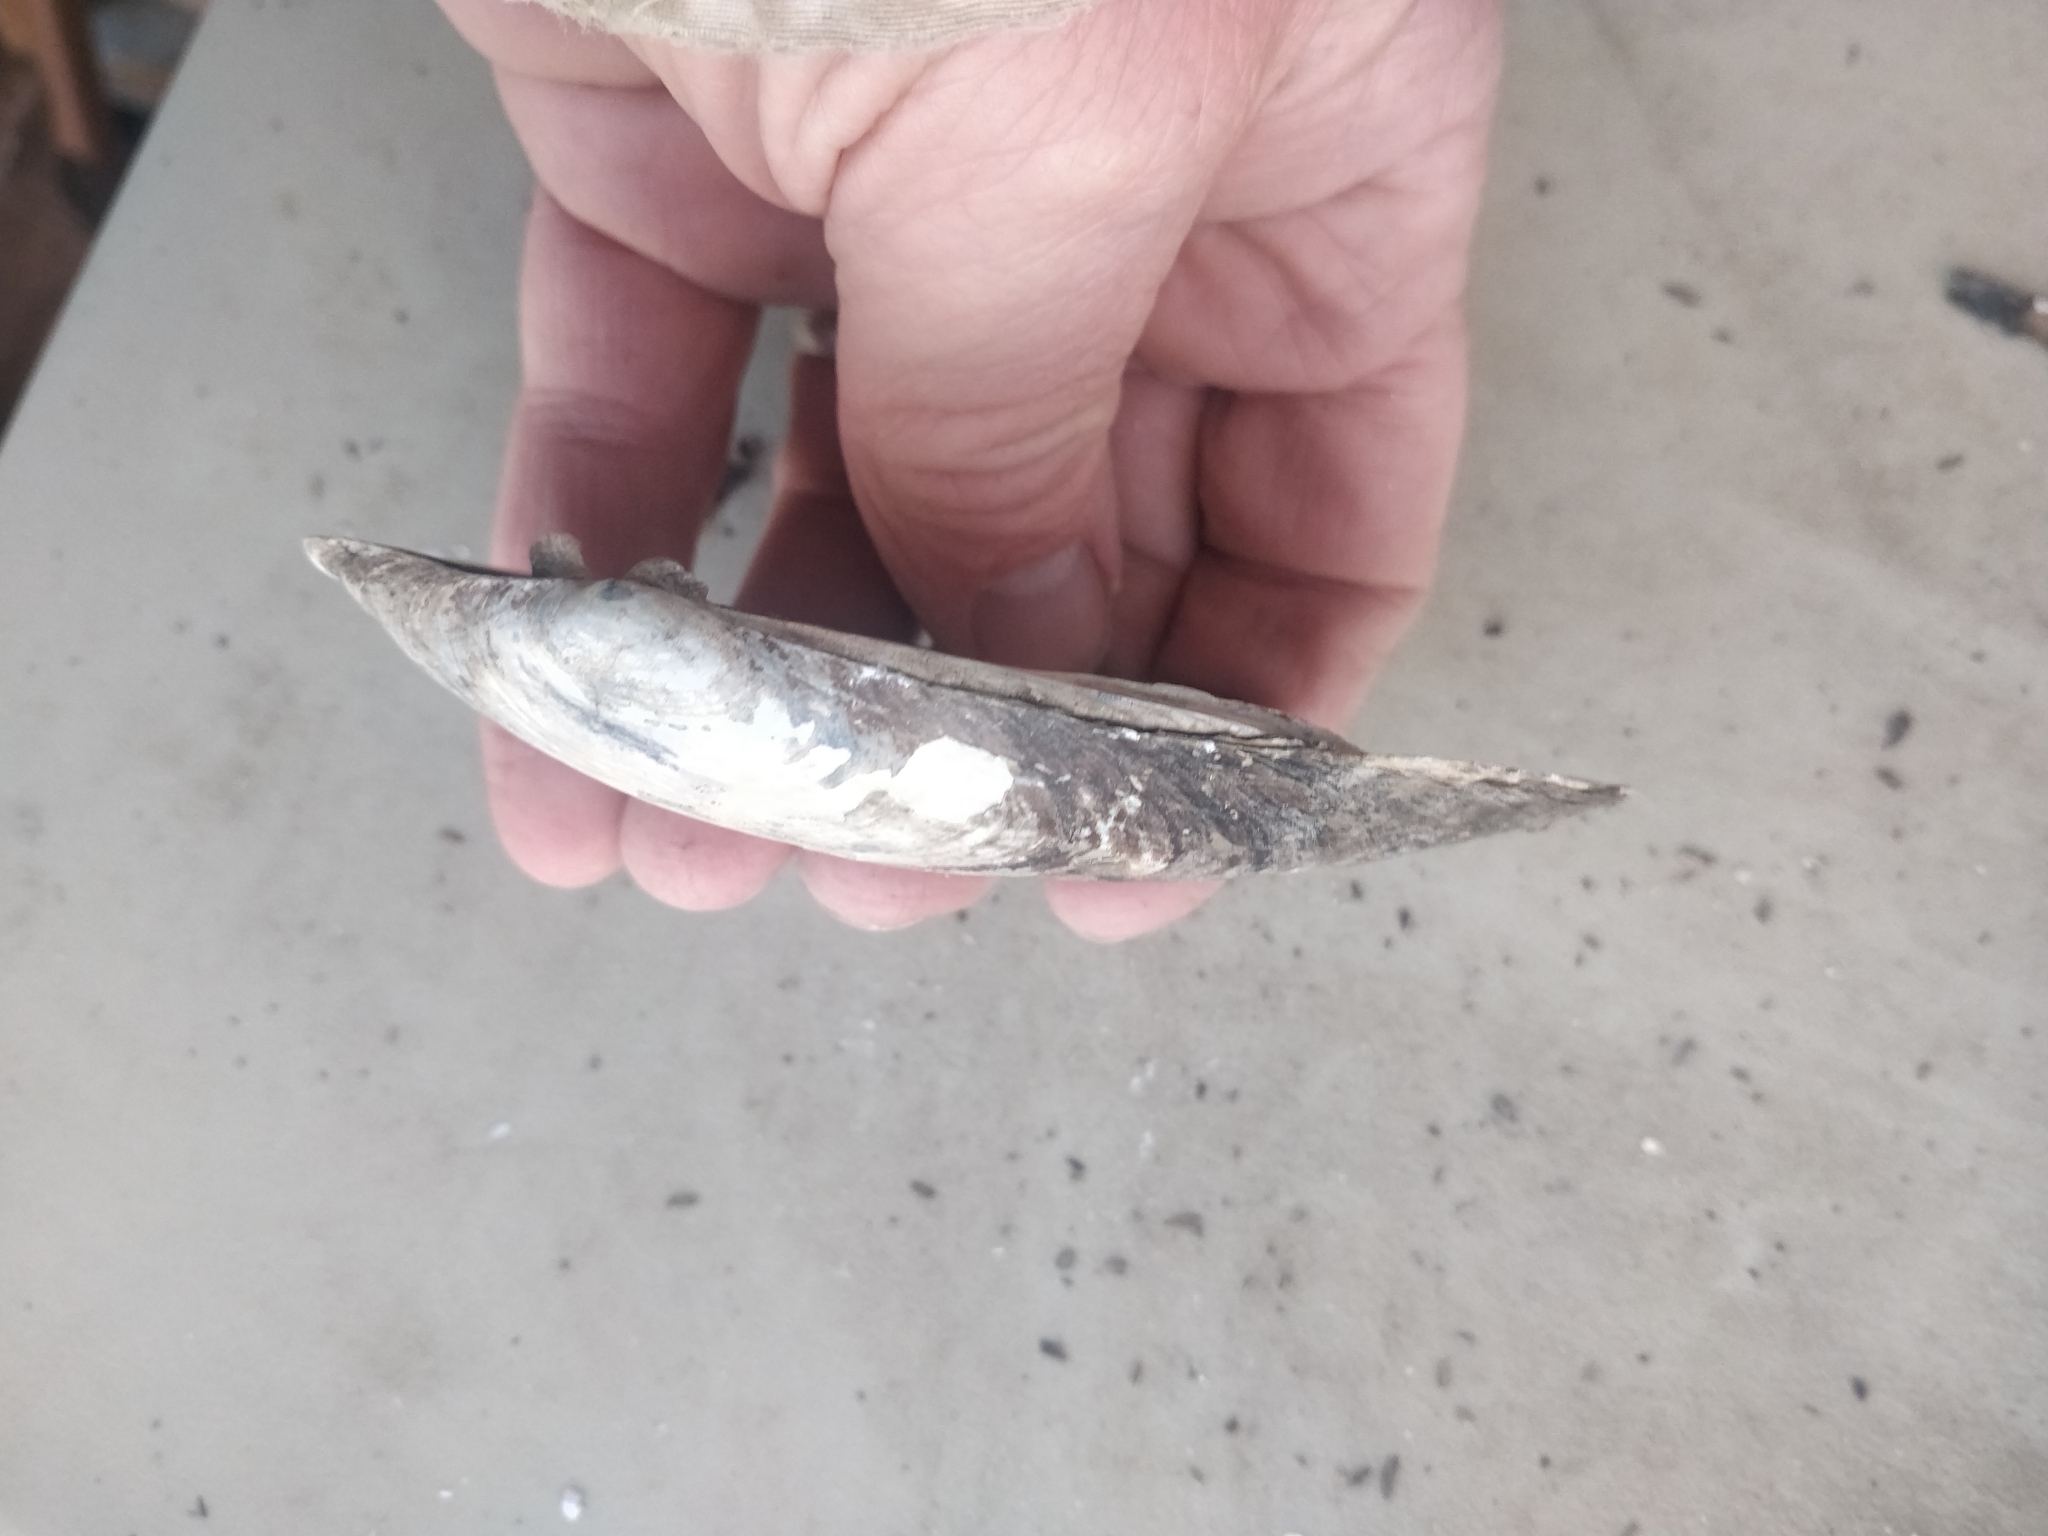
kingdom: Animalia
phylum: Mollusca
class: Bivalvia
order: Unionida
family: Unionidae
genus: Lampsilis
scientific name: Lampsilis siliquoidea
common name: Fatmucket
